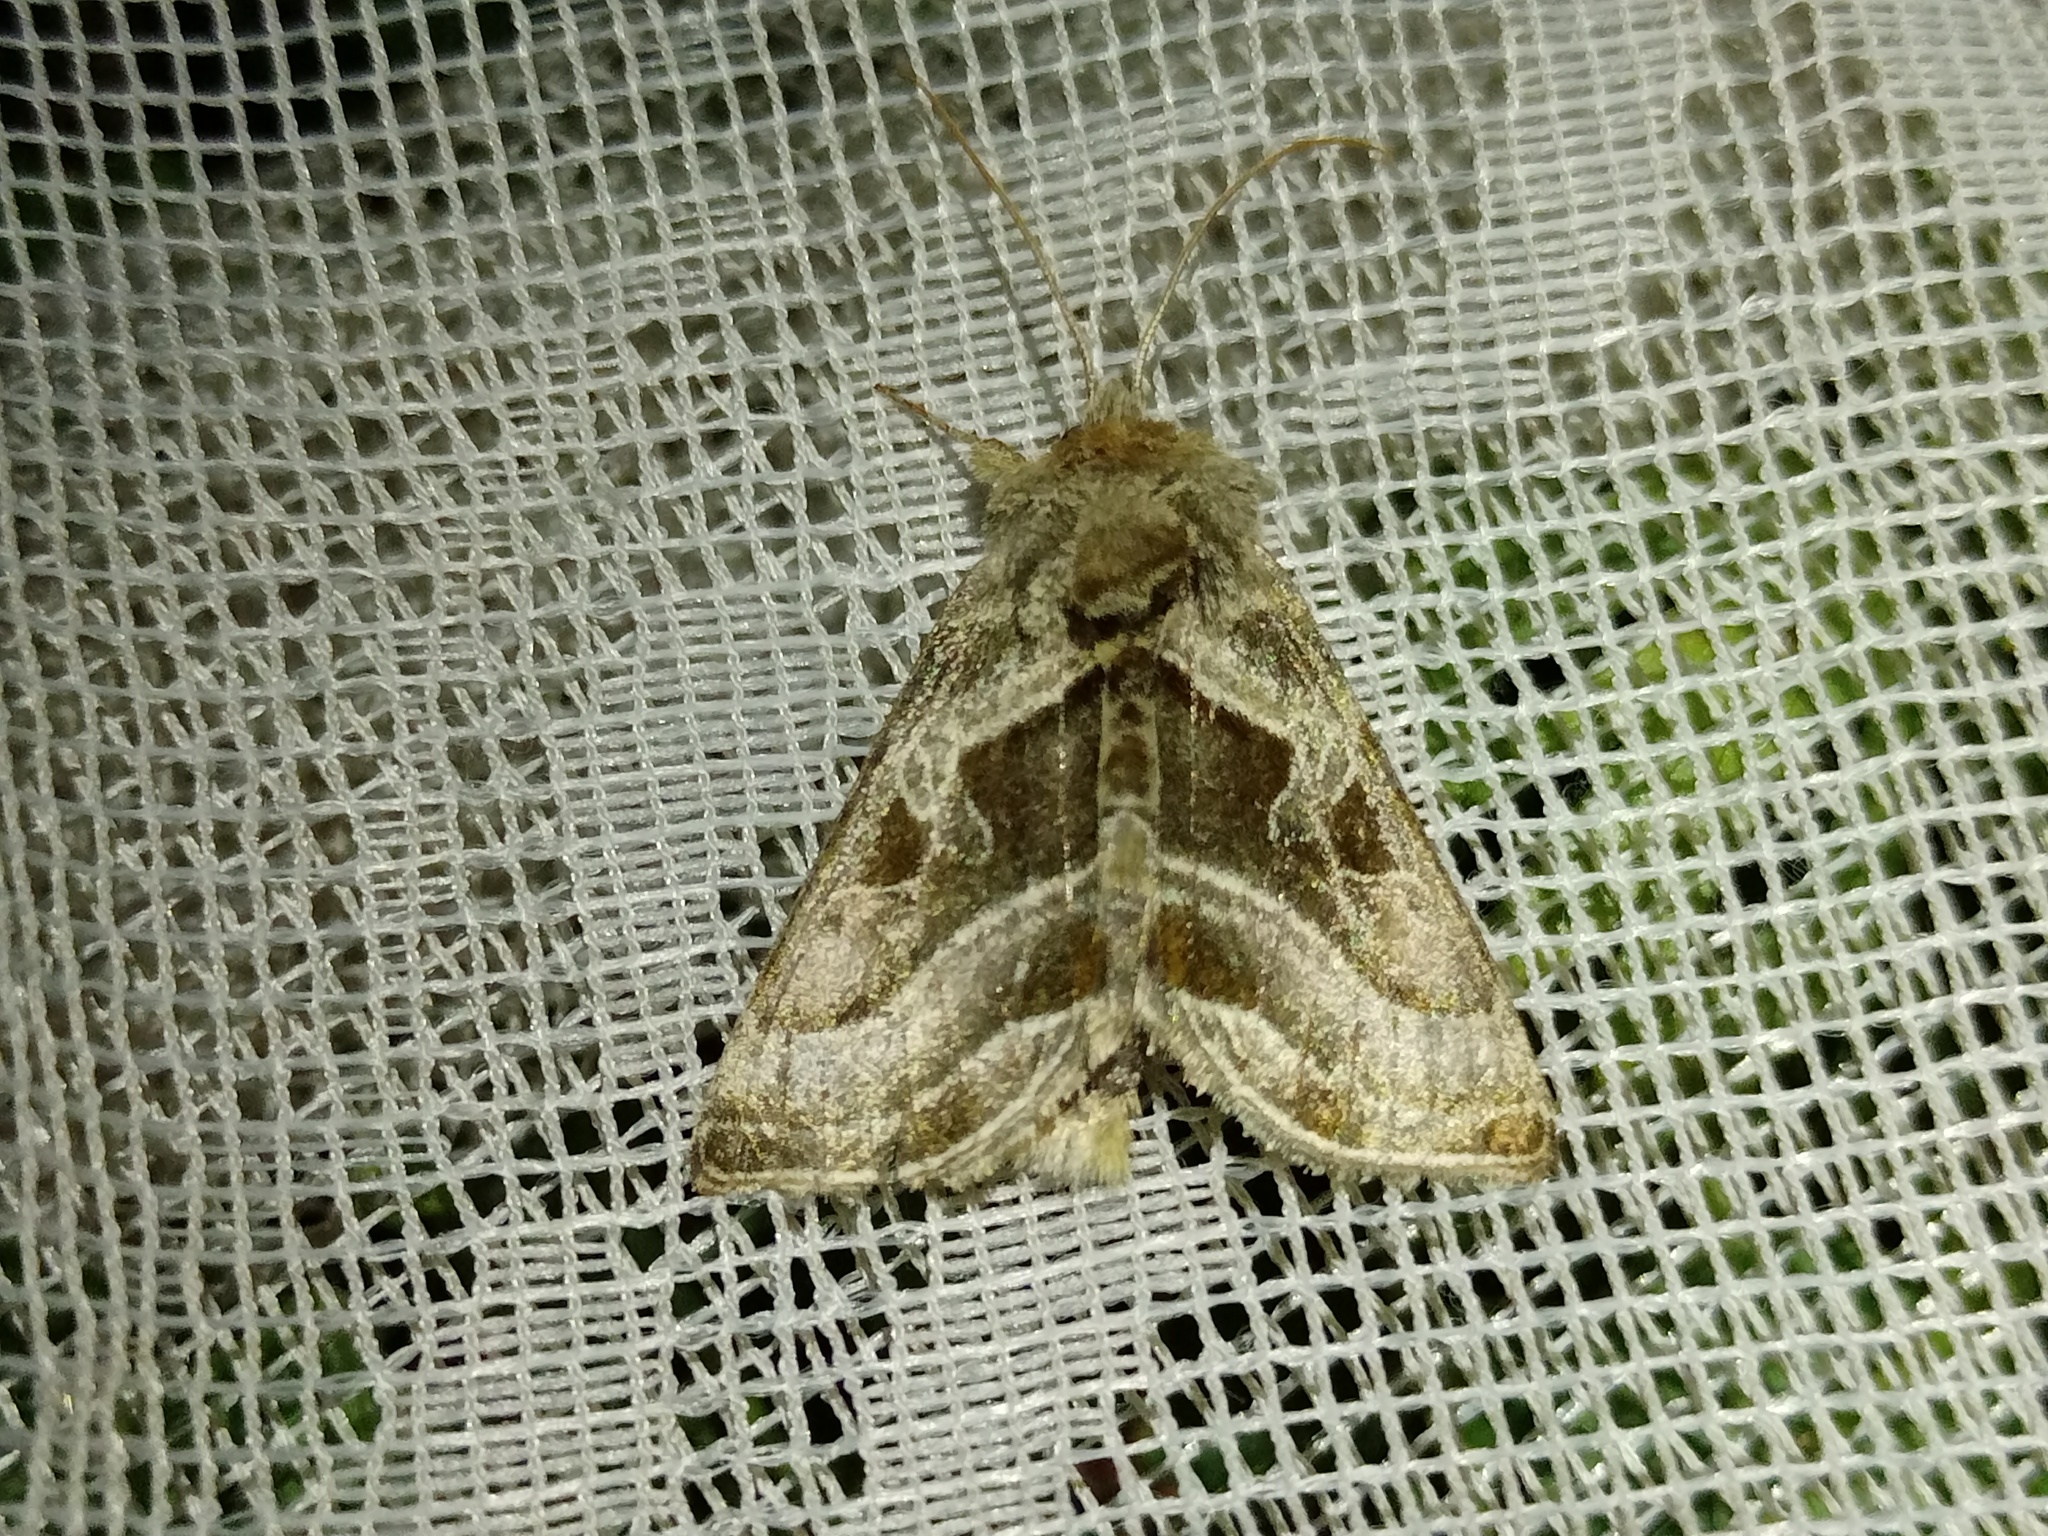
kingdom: Animalia
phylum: Arthropoda
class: Insecta
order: Lepidoptera
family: Noctuidae
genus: Euchalcia
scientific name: Euchalcia variabilis
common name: Purple-shaded gem
